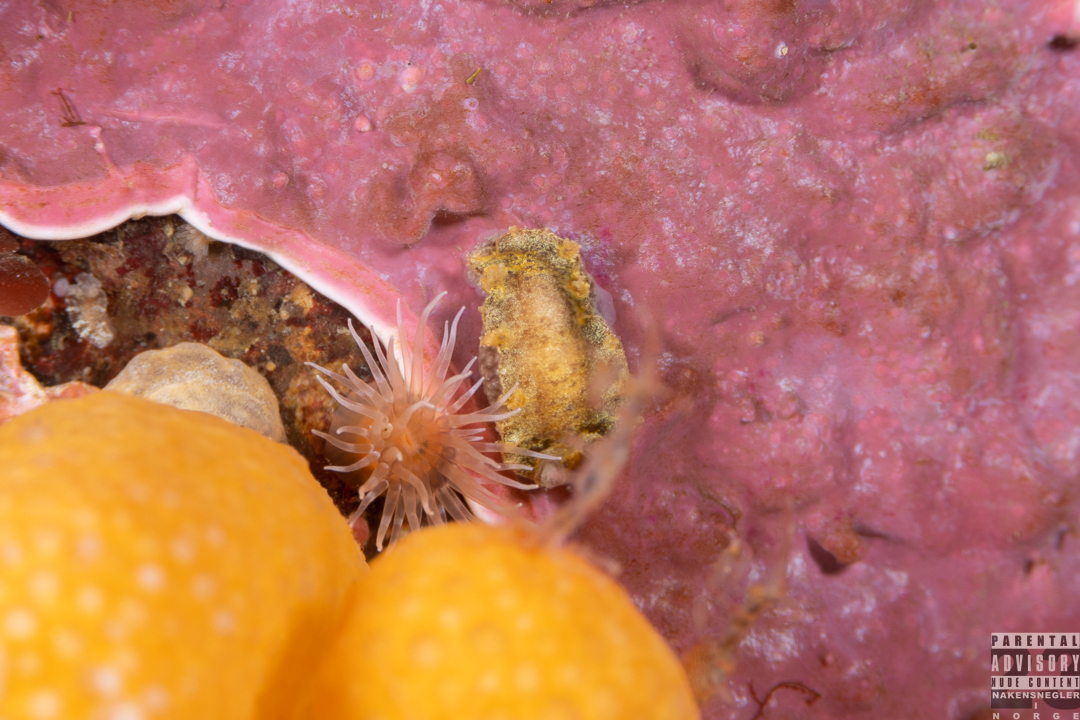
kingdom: Animalia
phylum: Mollusca
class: Gastropoda
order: Nudibranchia
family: Tritoniidae
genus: Duvaucelia
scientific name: Duvaucelia plebeia
